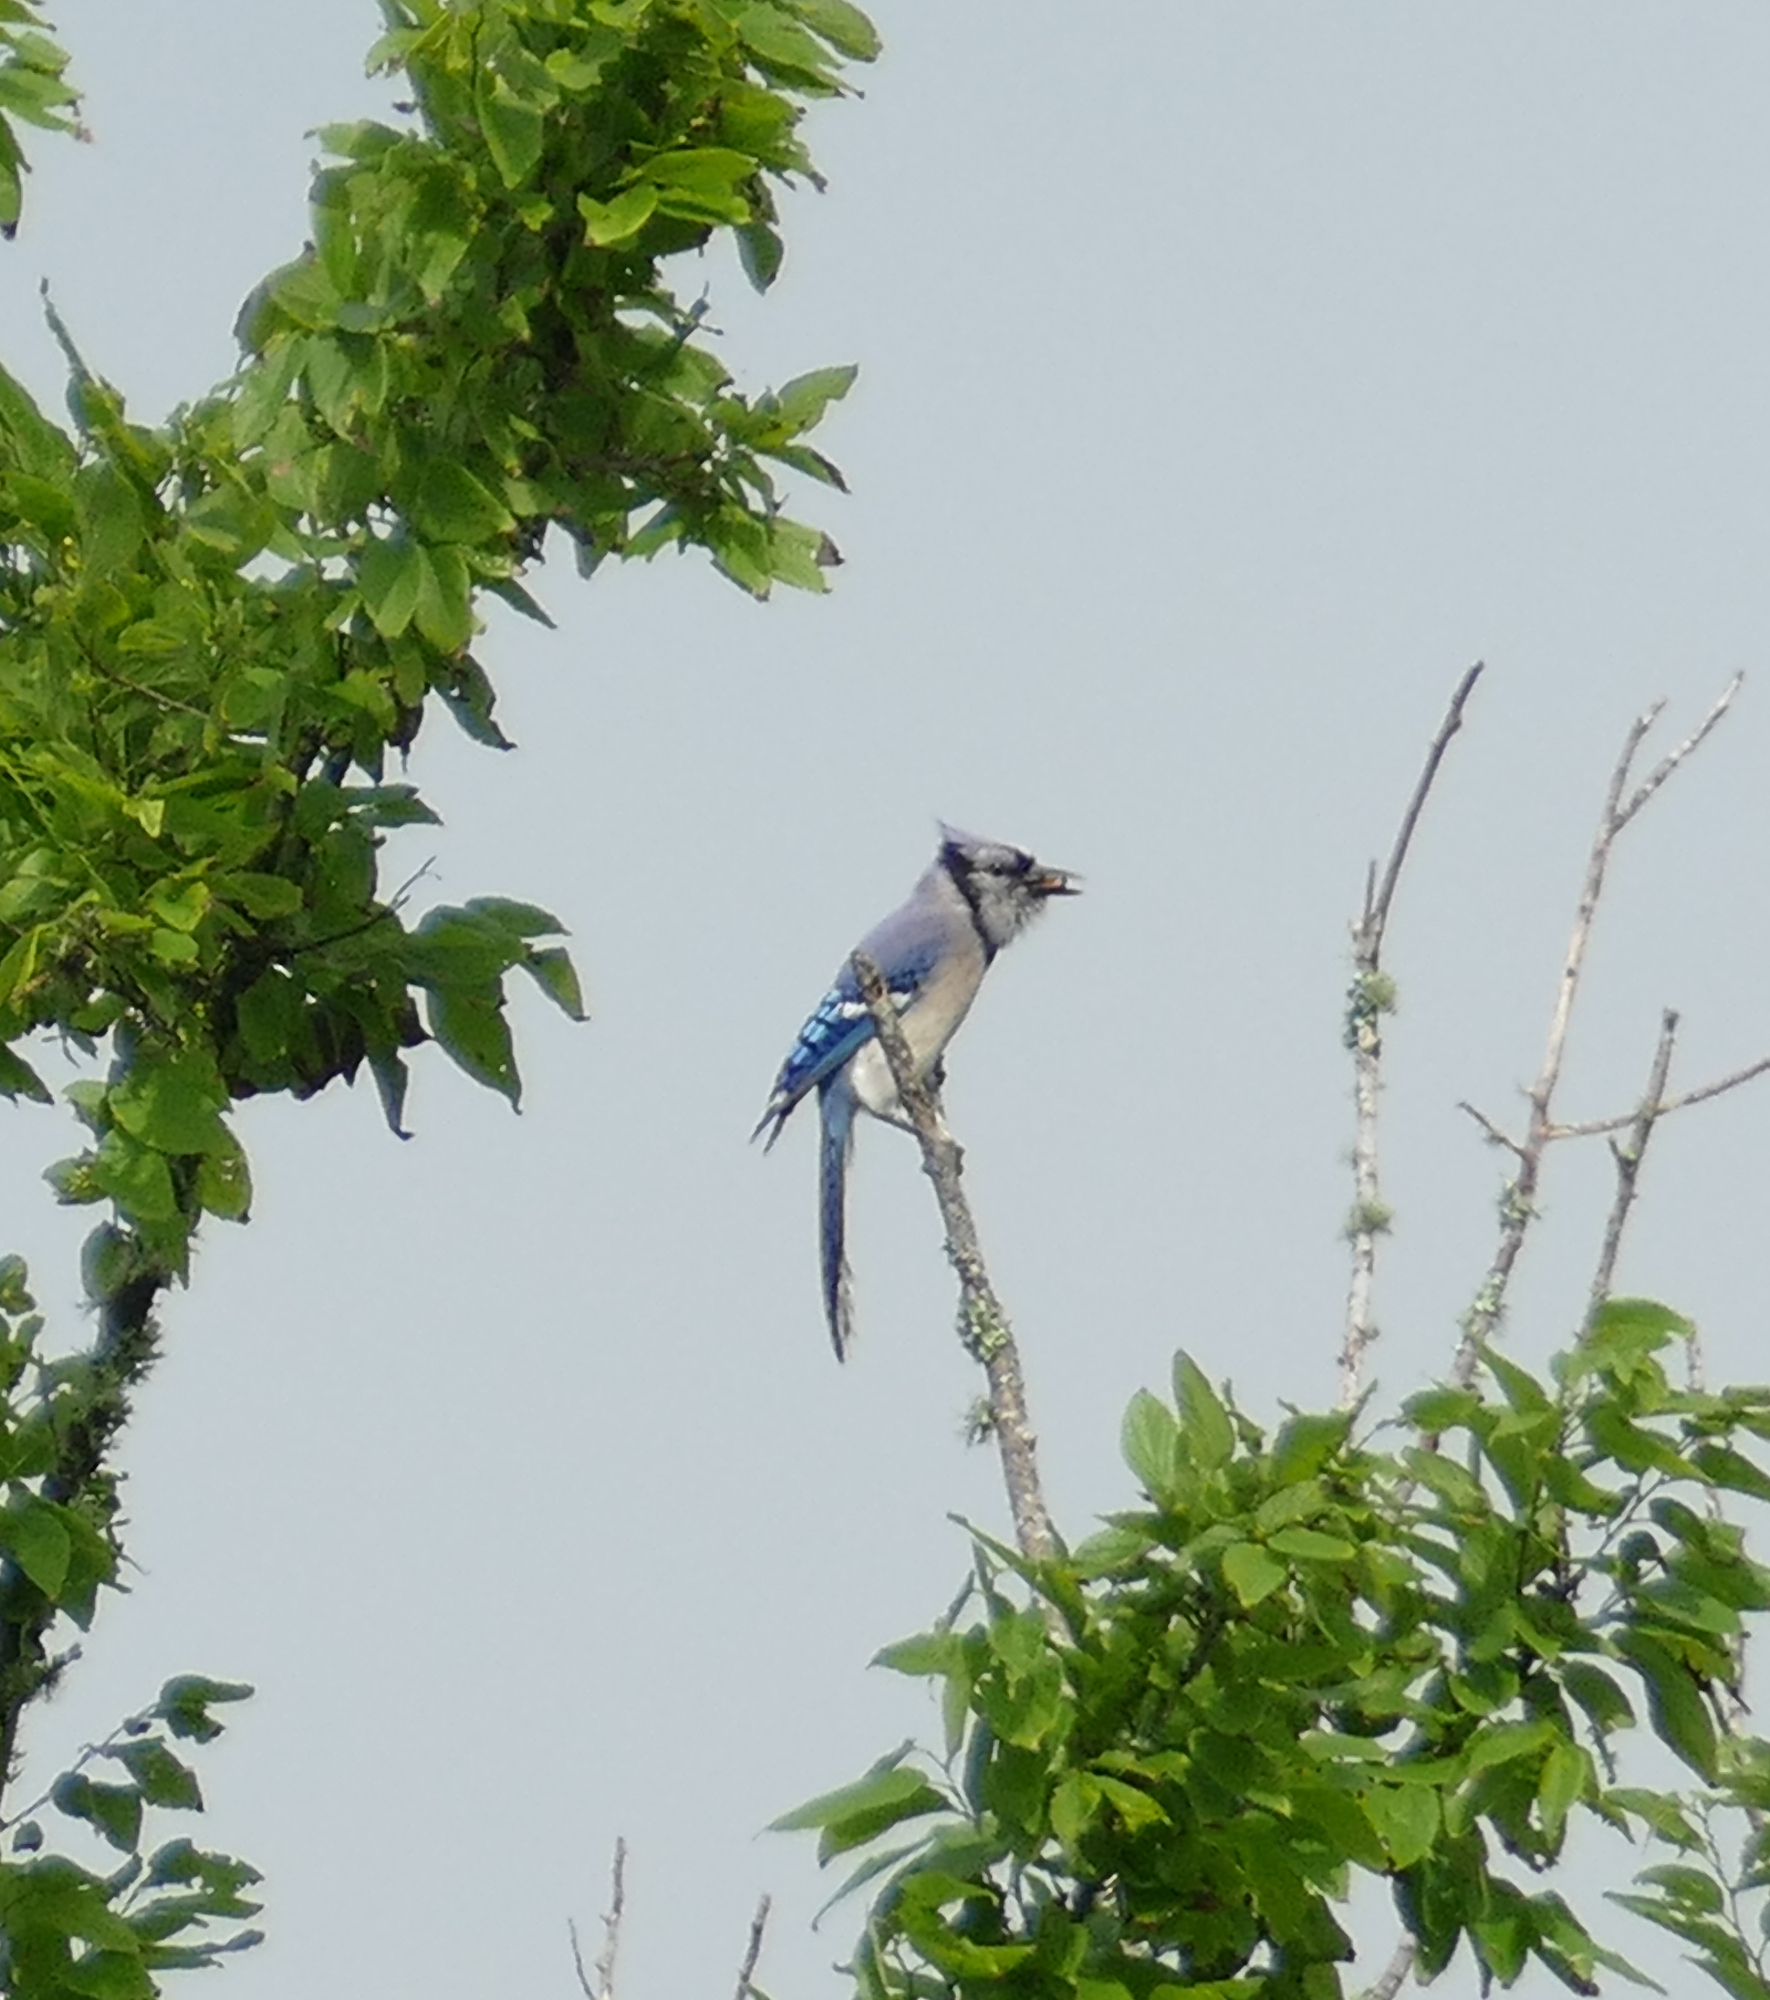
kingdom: Animalia
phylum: Chordata
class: Aves
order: Passeriformes
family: Corvidae
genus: Cyanocitta
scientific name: Cyanocitta cristata
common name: Blue jay
